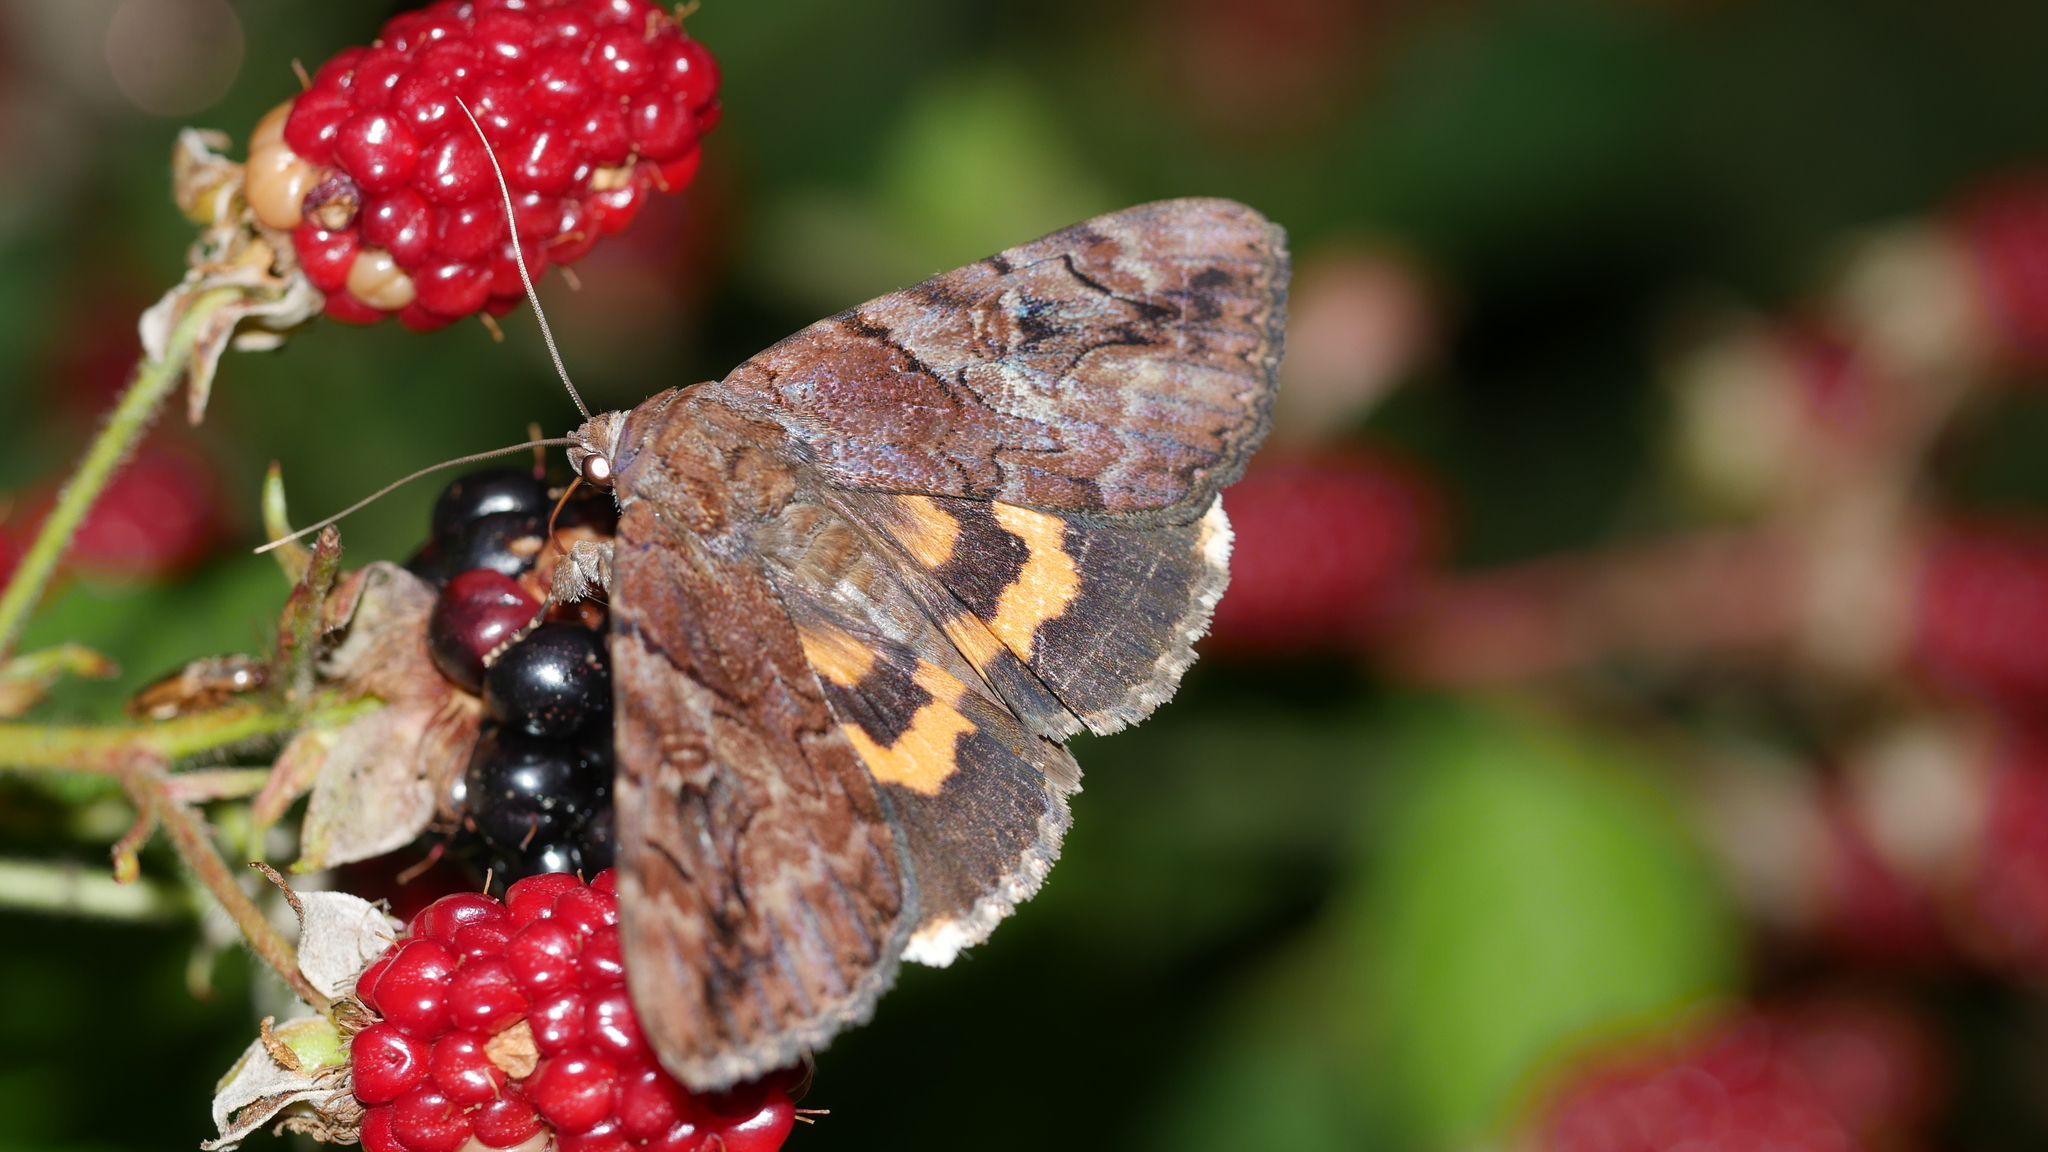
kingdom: Animalia
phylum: Arthropoda
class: Insecta
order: Lepidoptera
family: Erebidae
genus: Catocala
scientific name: Catocala muliercula
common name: The little wife underwing
